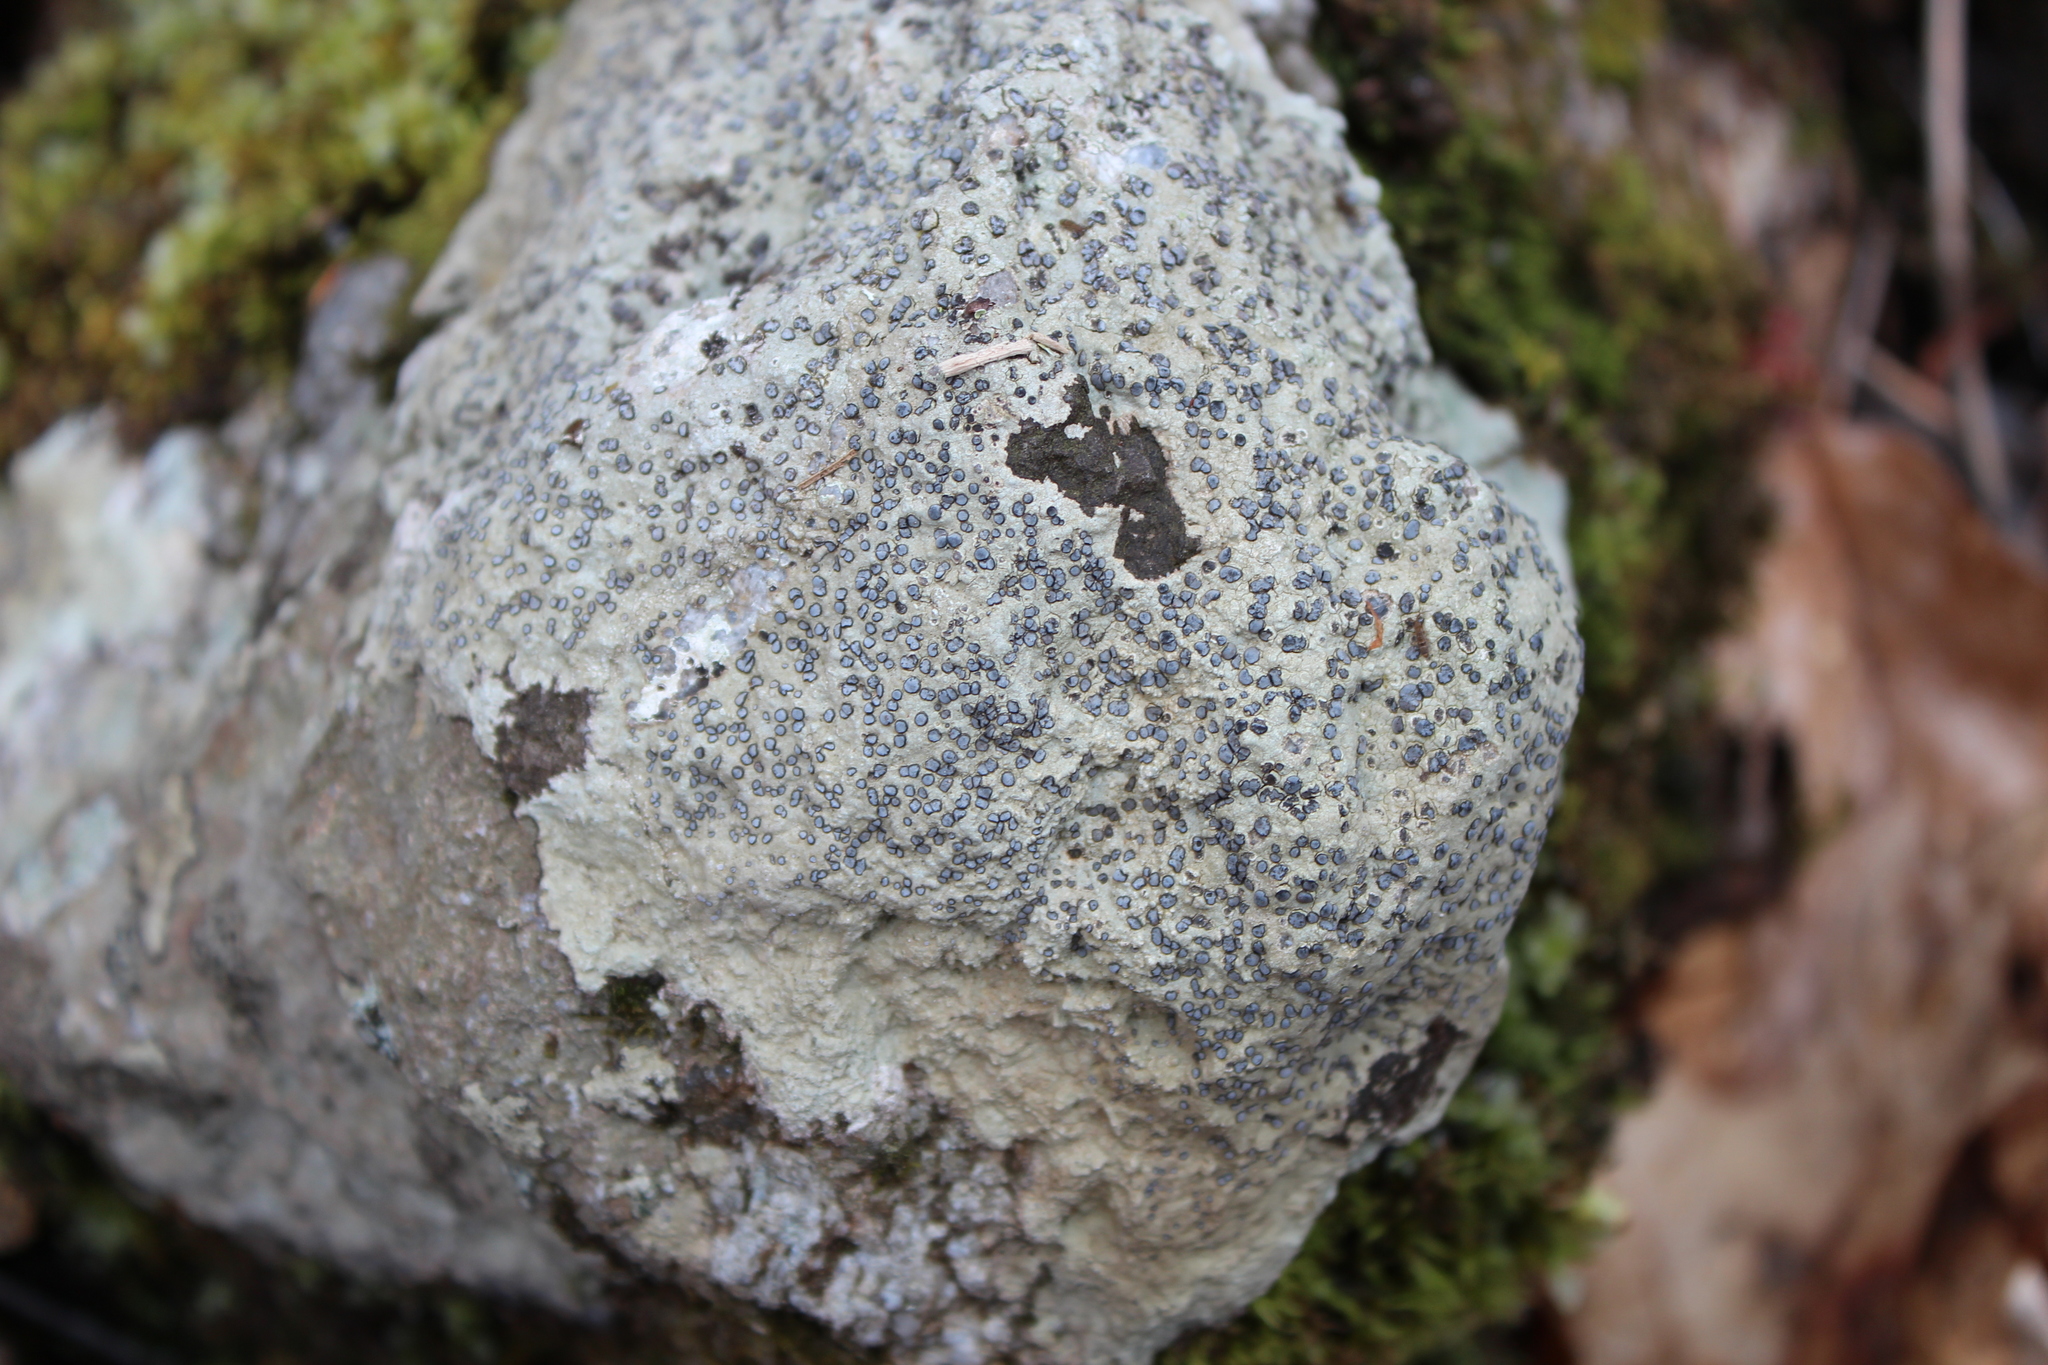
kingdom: Fungi
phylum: Ascomycota
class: Lecanoromycetes
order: Lecideales
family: Lecideaceae
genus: Porpidia
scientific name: Porpidia albocaerulescens
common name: Smokey-eyed boulder lichen
